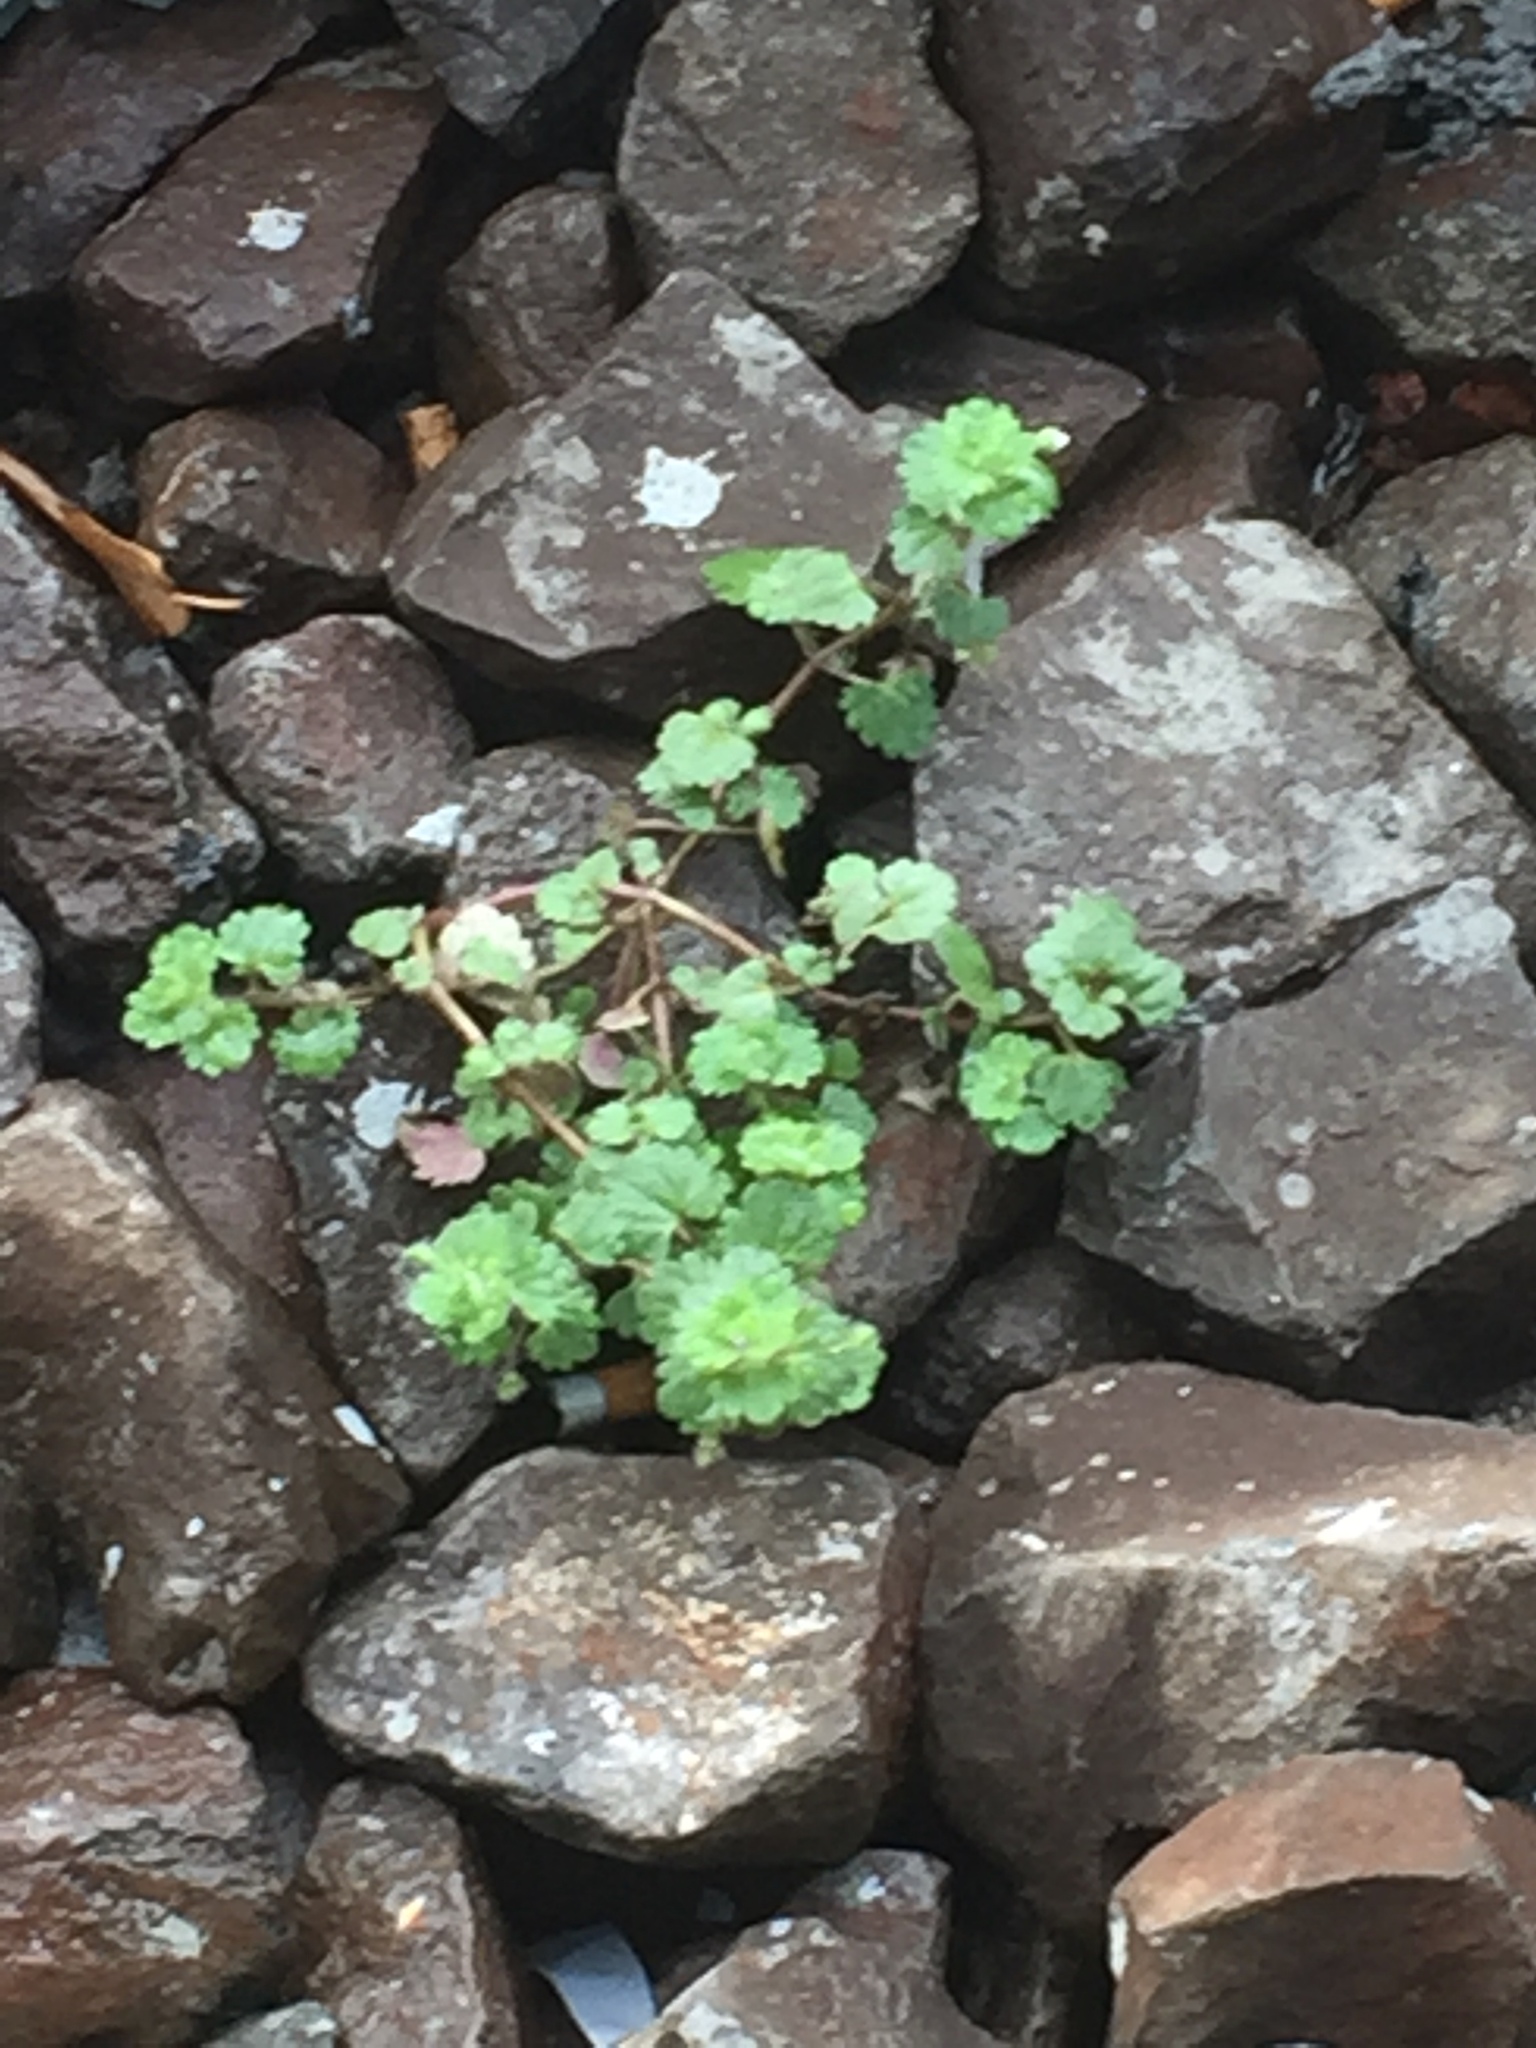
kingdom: Plantae
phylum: Tracheophyta
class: Magnoliopsida
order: Lamiales
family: Plantaginaceae
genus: Veronica
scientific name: Veronica cymbalaria
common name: Pale speedwell
